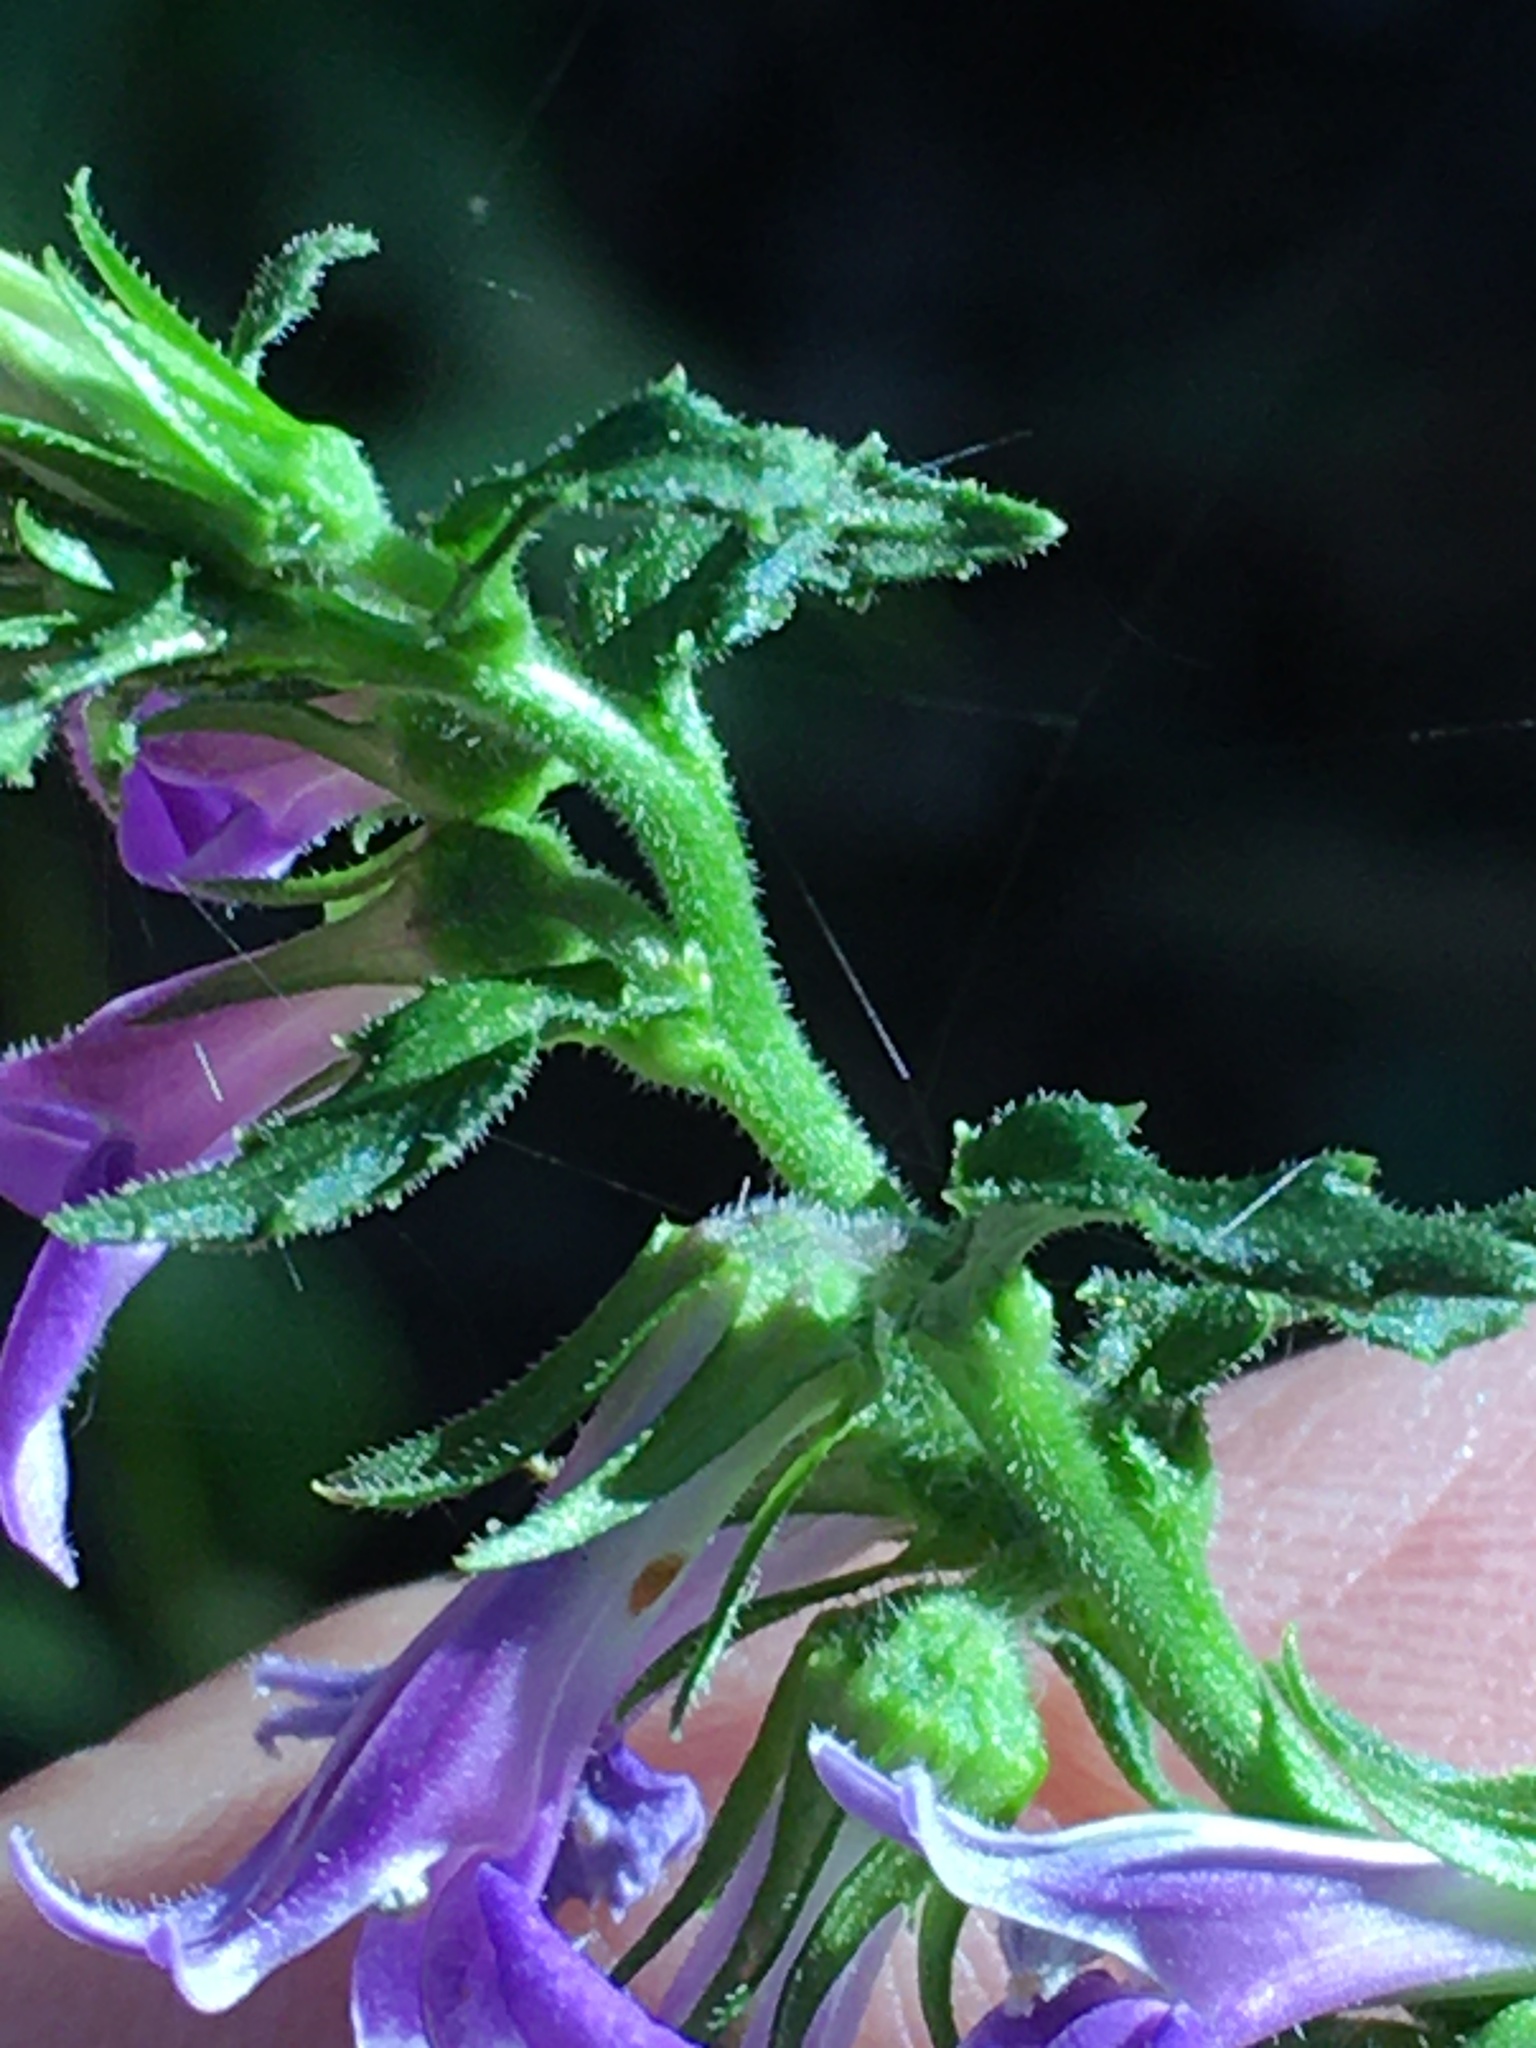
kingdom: Plantae
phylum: Tracheophyta
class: Magnoliopsida
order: Asterales
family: Campanulaceae
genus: Lobelia
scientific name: Lobelia puberula
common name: Purple dewdrop
